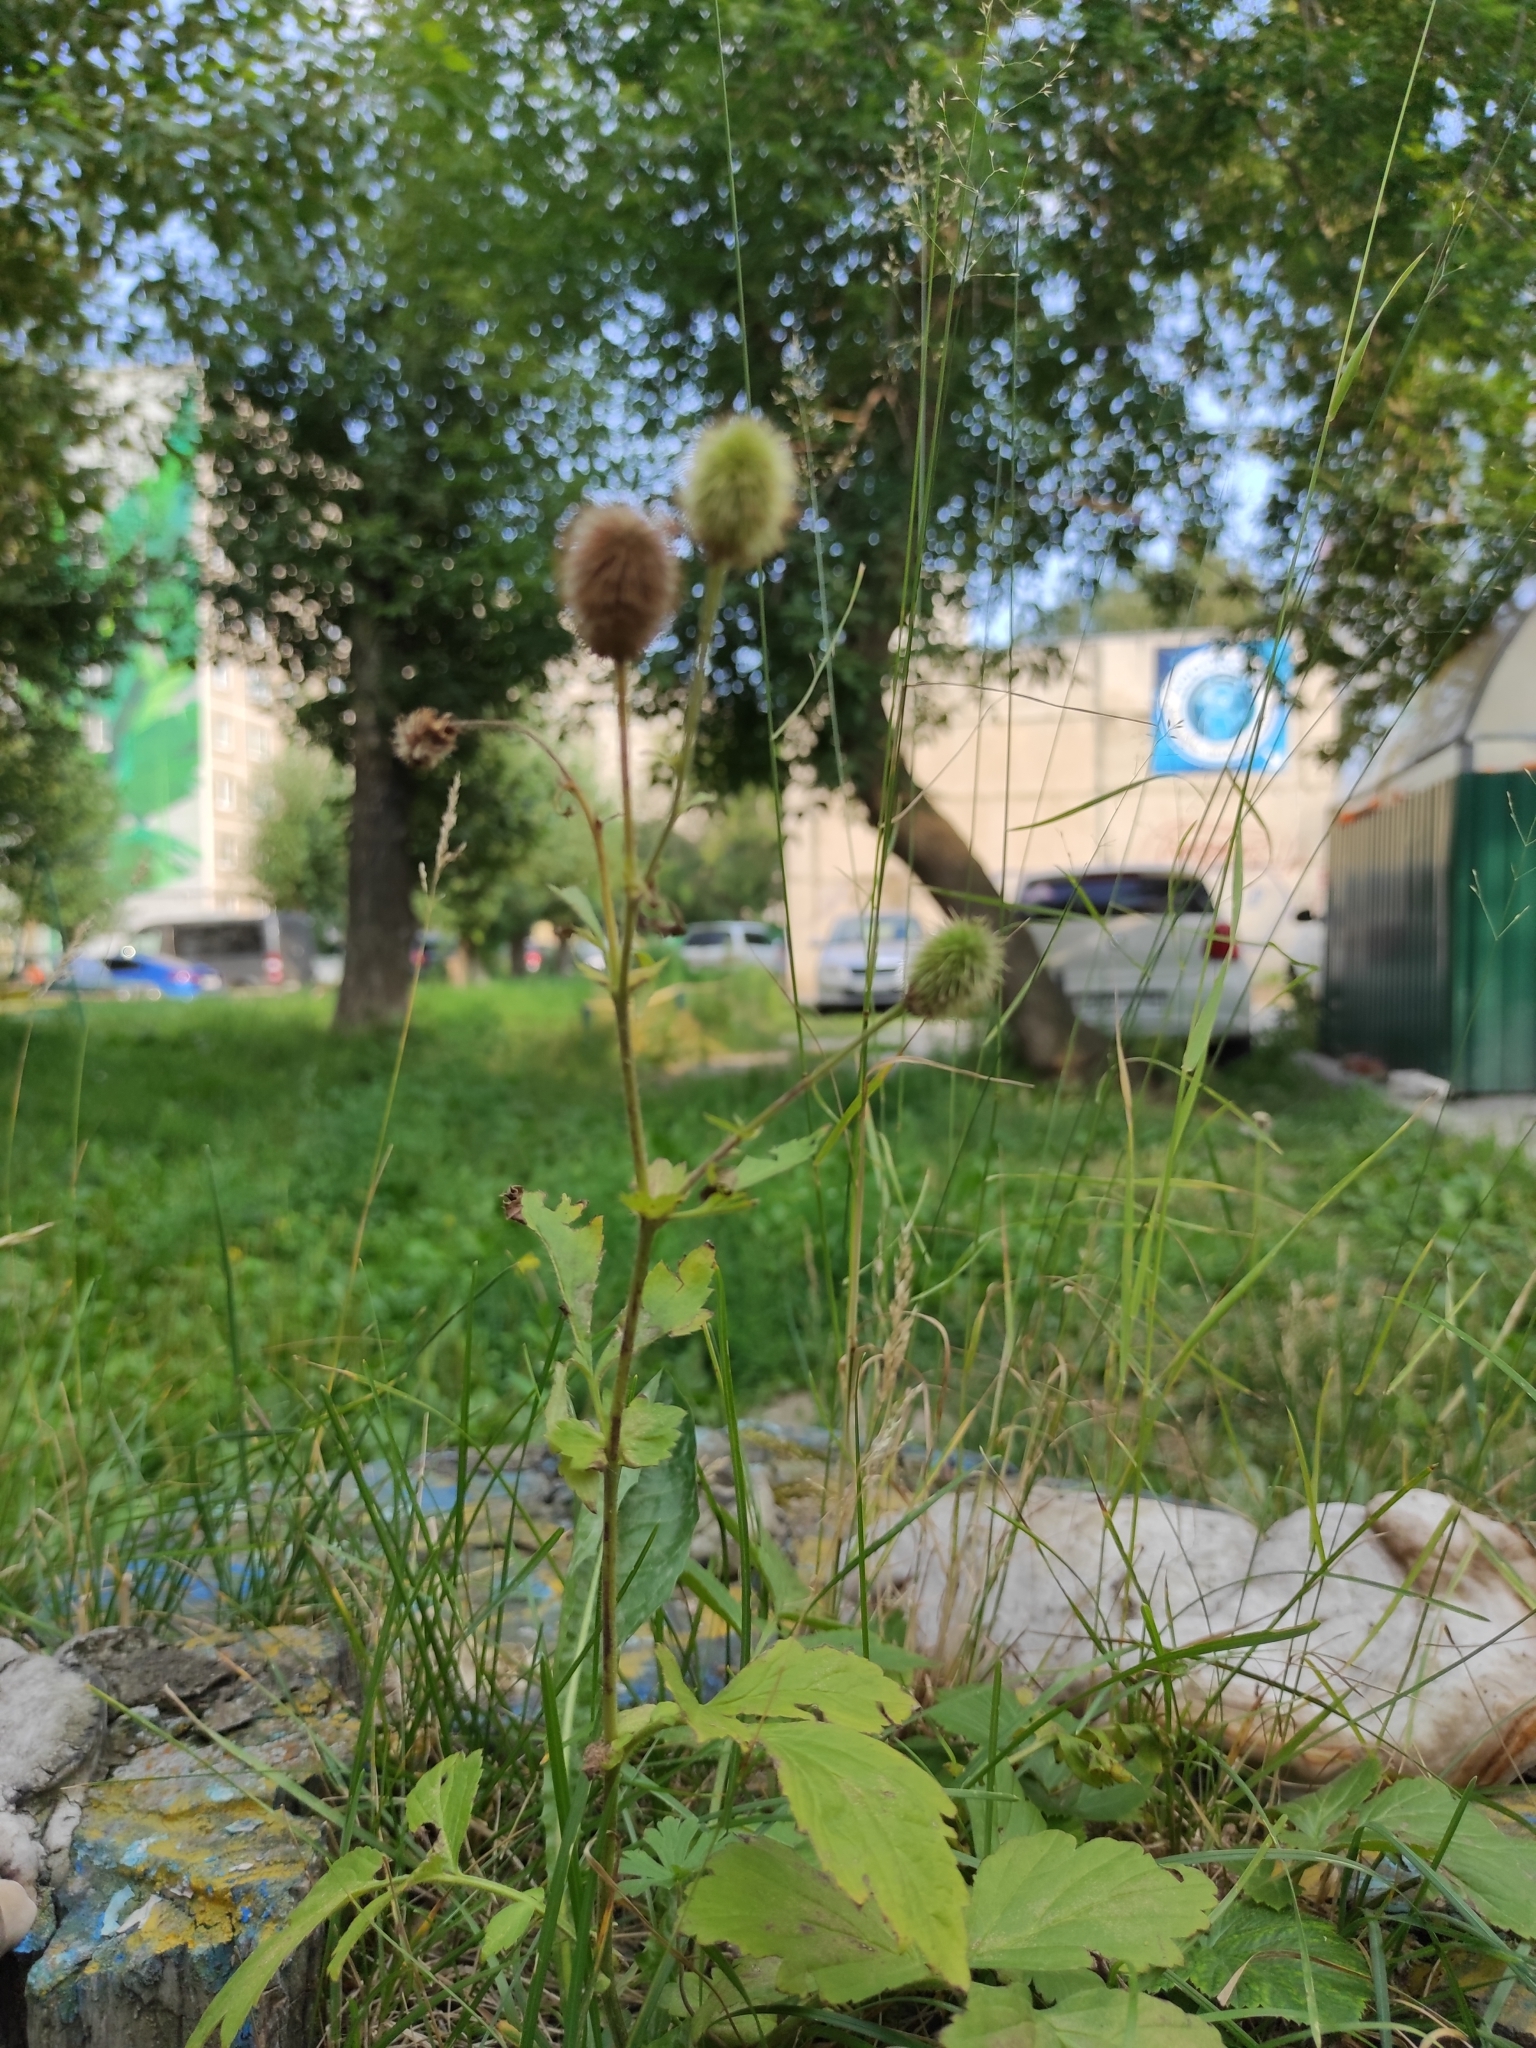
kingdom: Plantae
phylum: Tracheophyta
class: Magnoliopsida
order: Rosales
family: Rosaceae
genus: Geum
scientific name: Geum aleppicum
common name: Yellow avens
